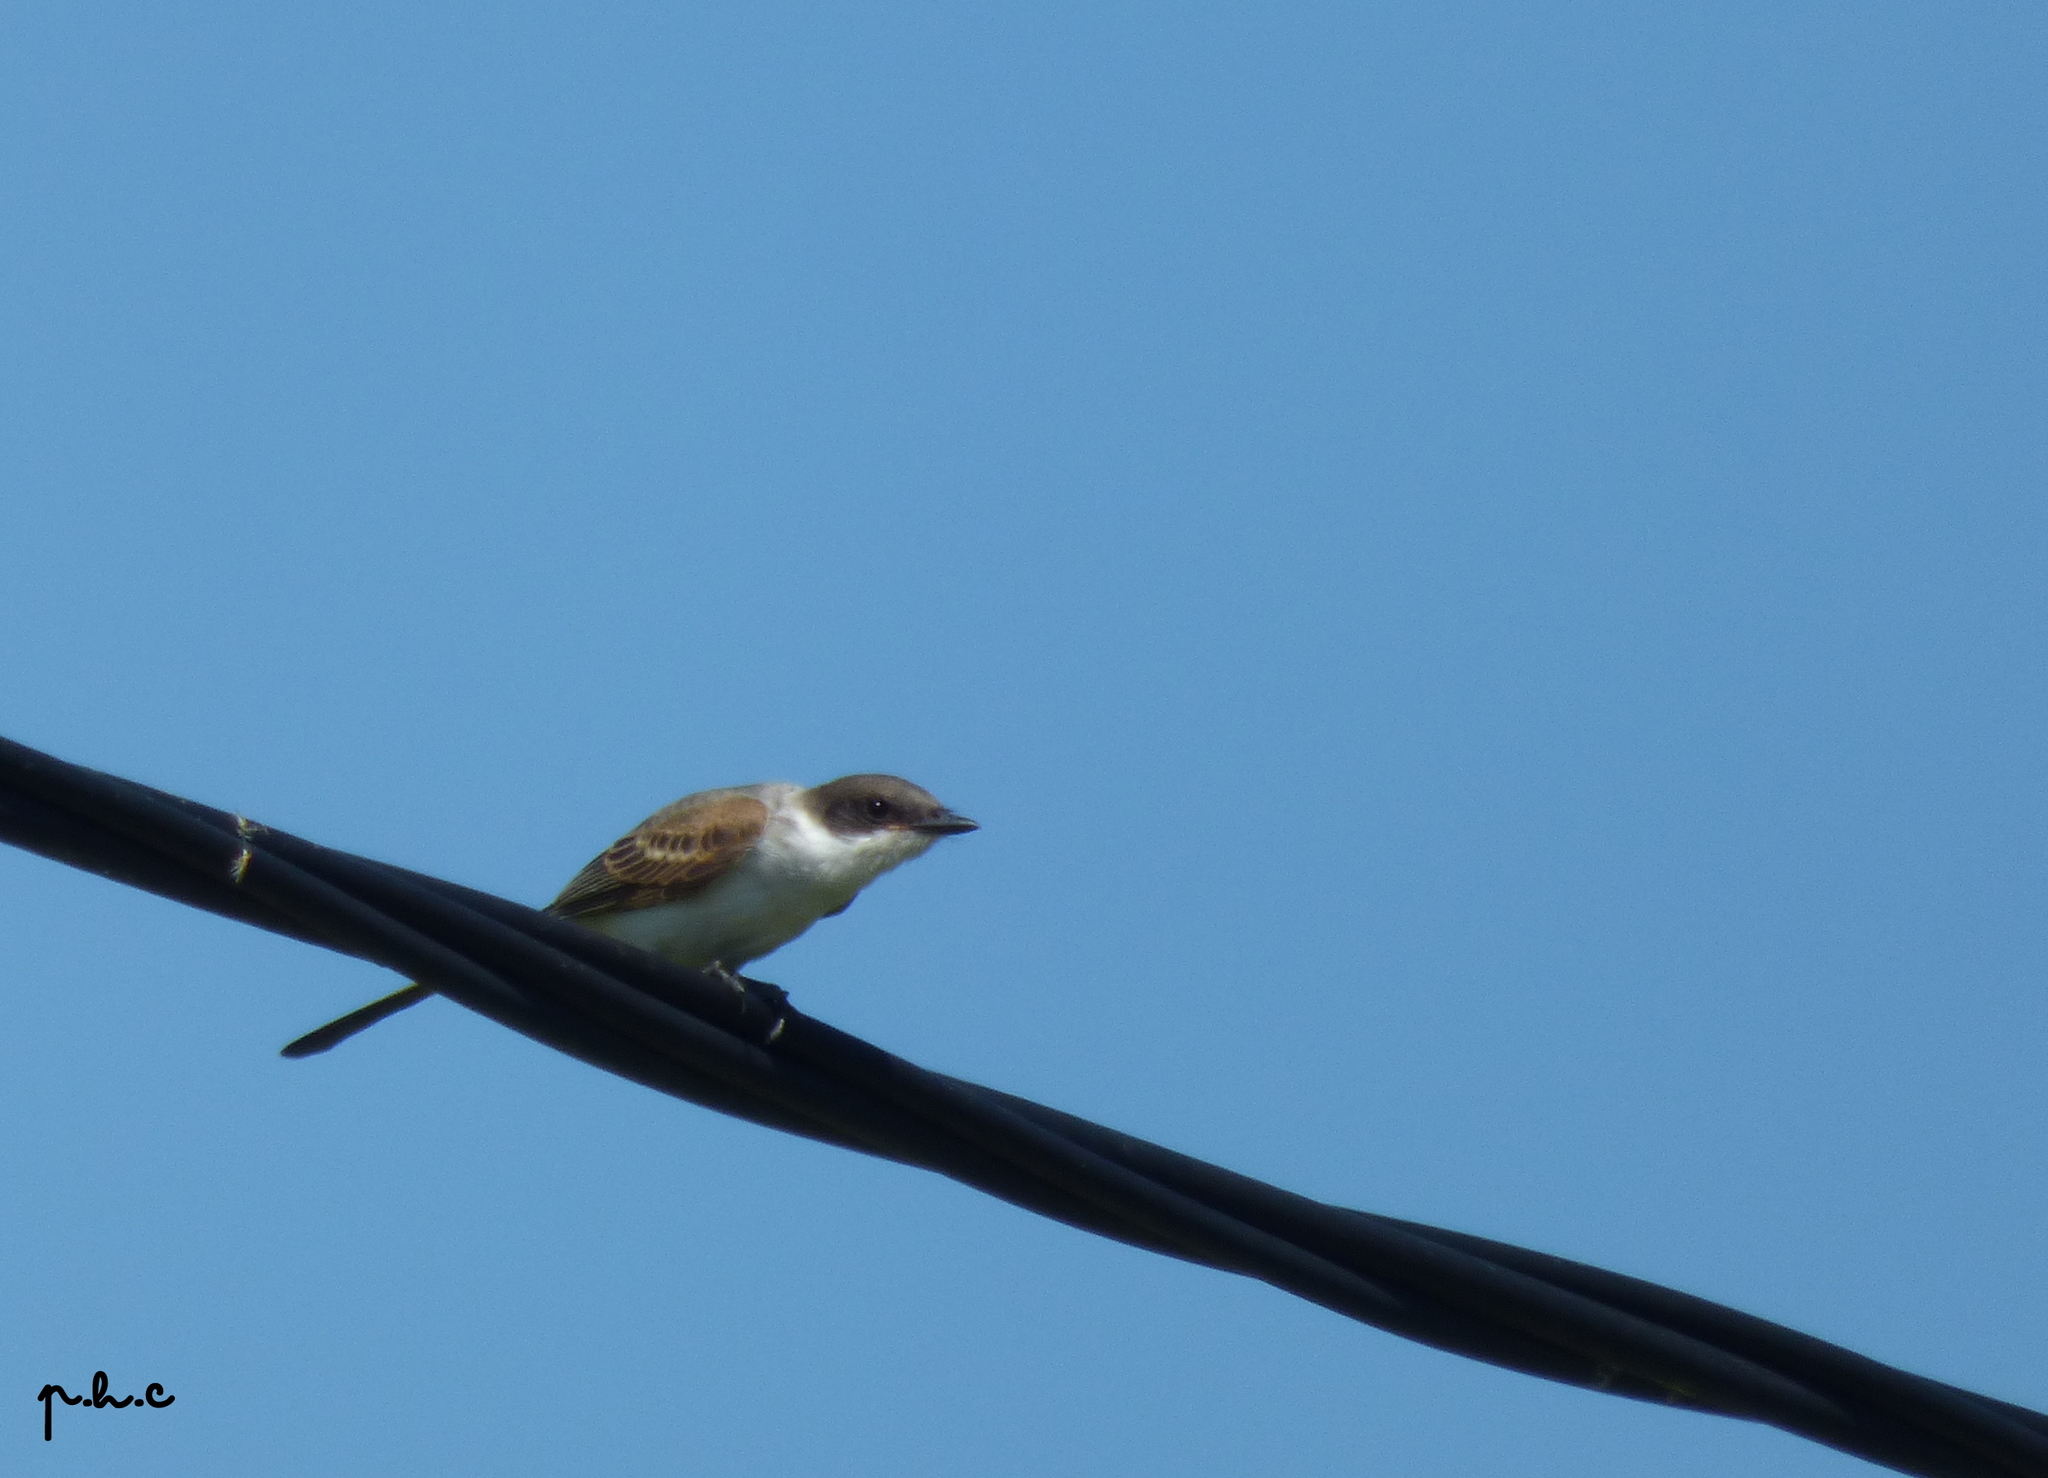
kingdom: Animalia
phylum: Chordata
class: Aves
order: Passeriformes
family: Tyrannidae
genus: Tyrannus
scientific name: Tyrannus savana
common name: Fork-tailed flycatcher
